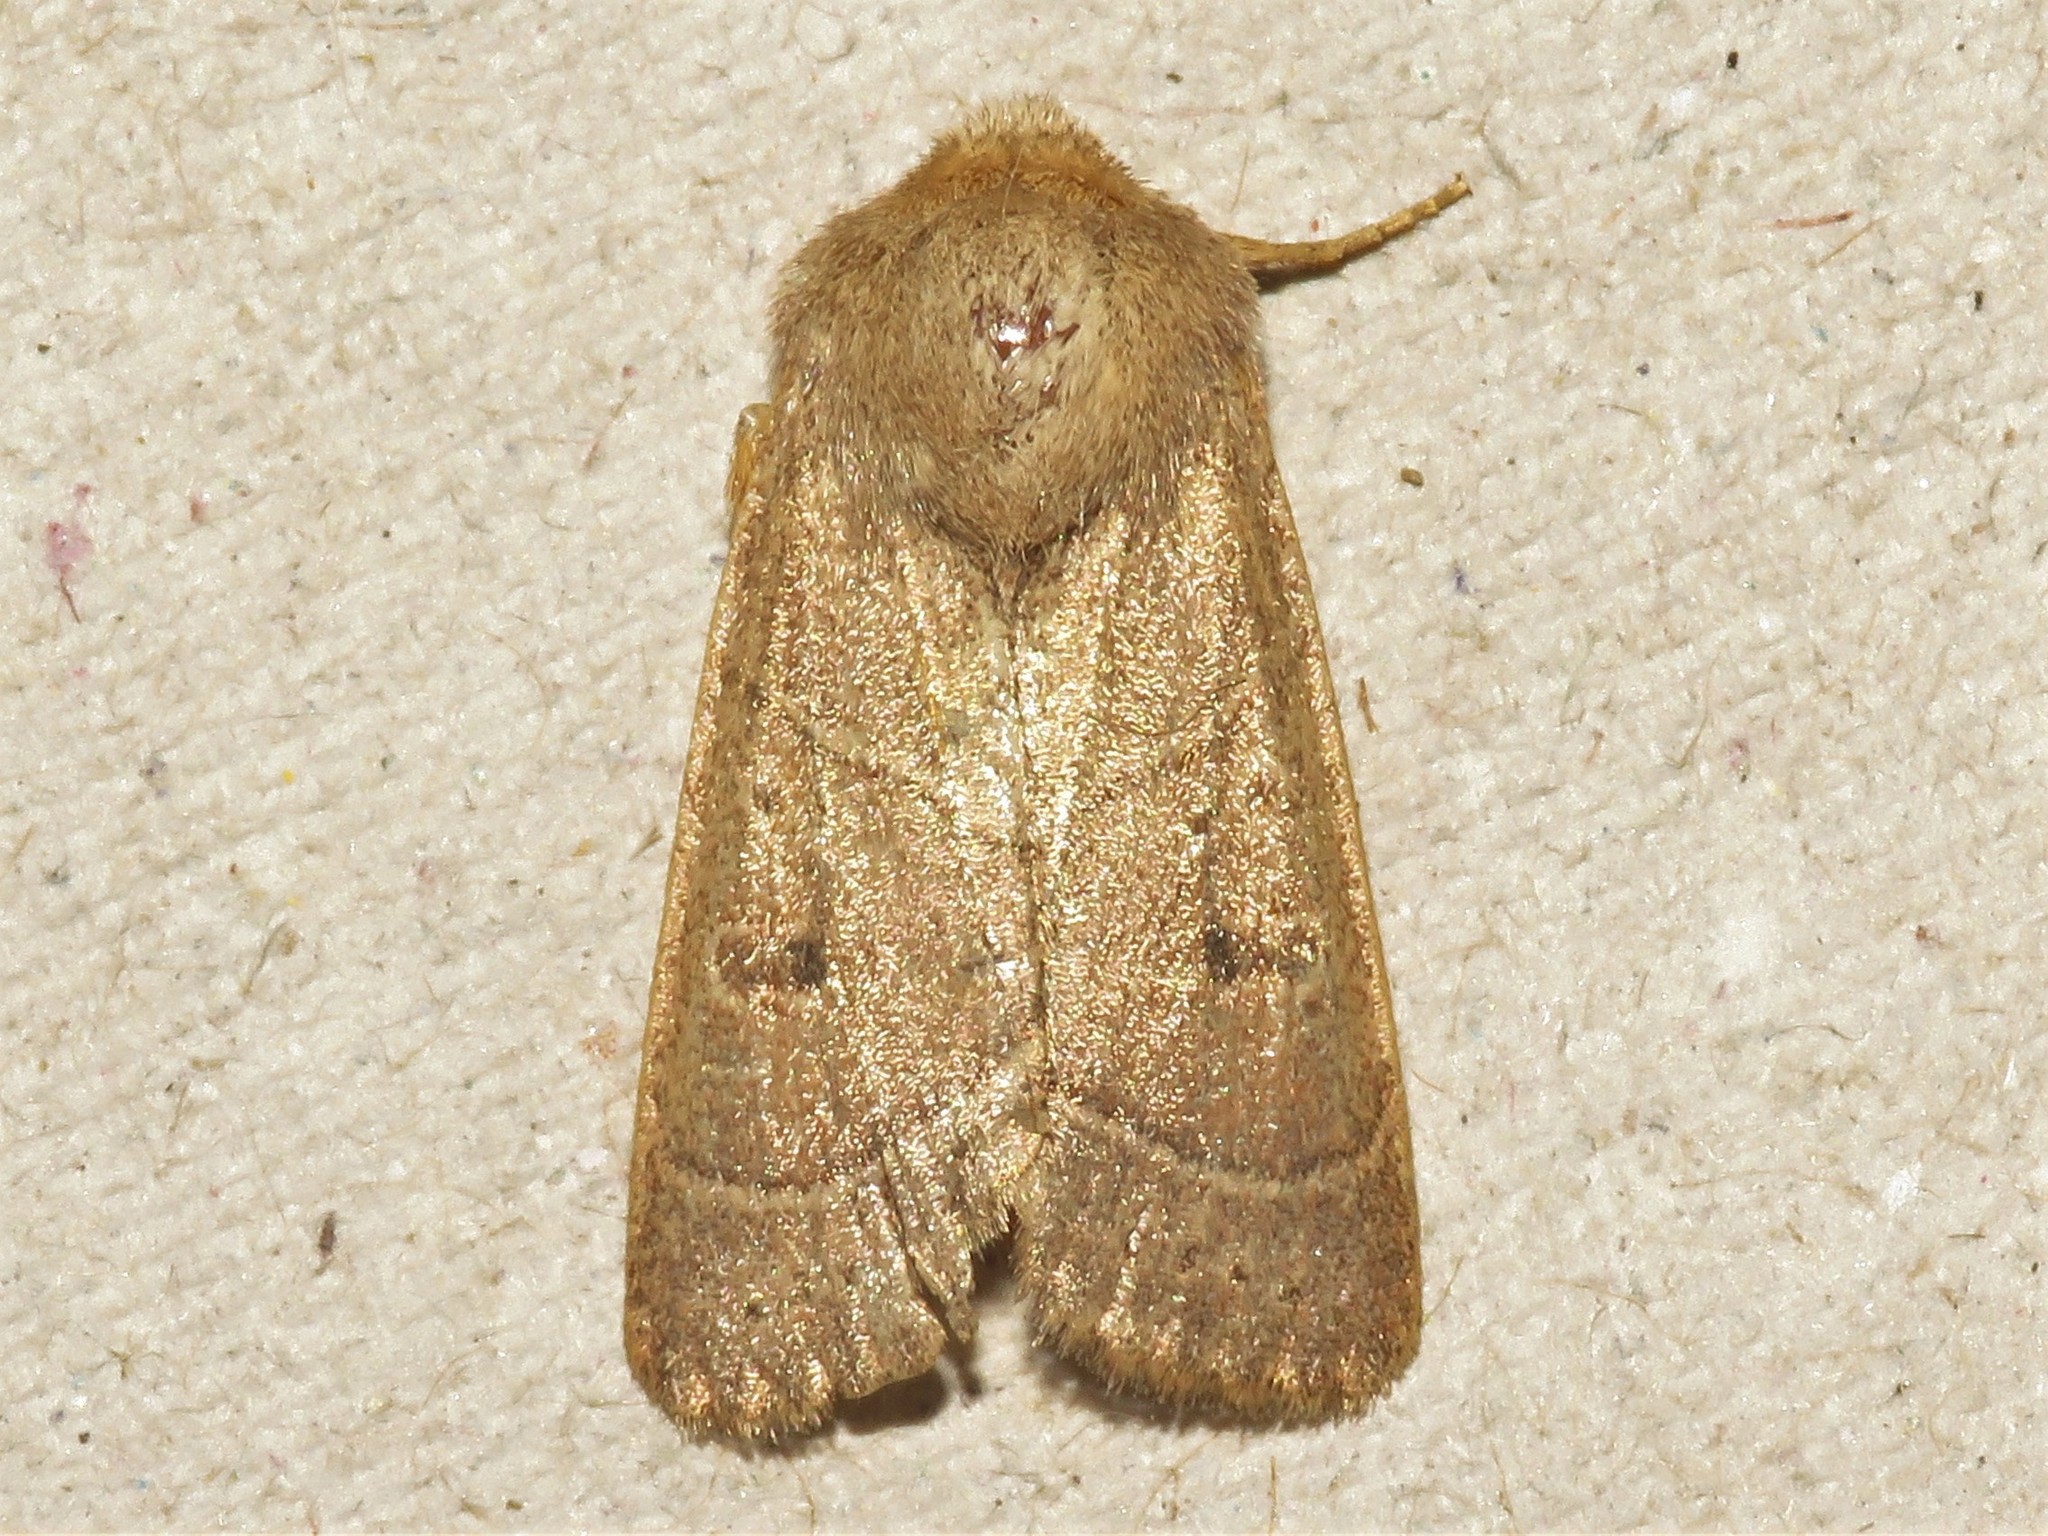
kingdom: Animalia
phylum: Arthropoda
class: Insecta
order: Lepidoptera
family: Noctuidae
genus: Ulolonche
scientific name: Ulolonche culea
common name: Sheathed quaker
